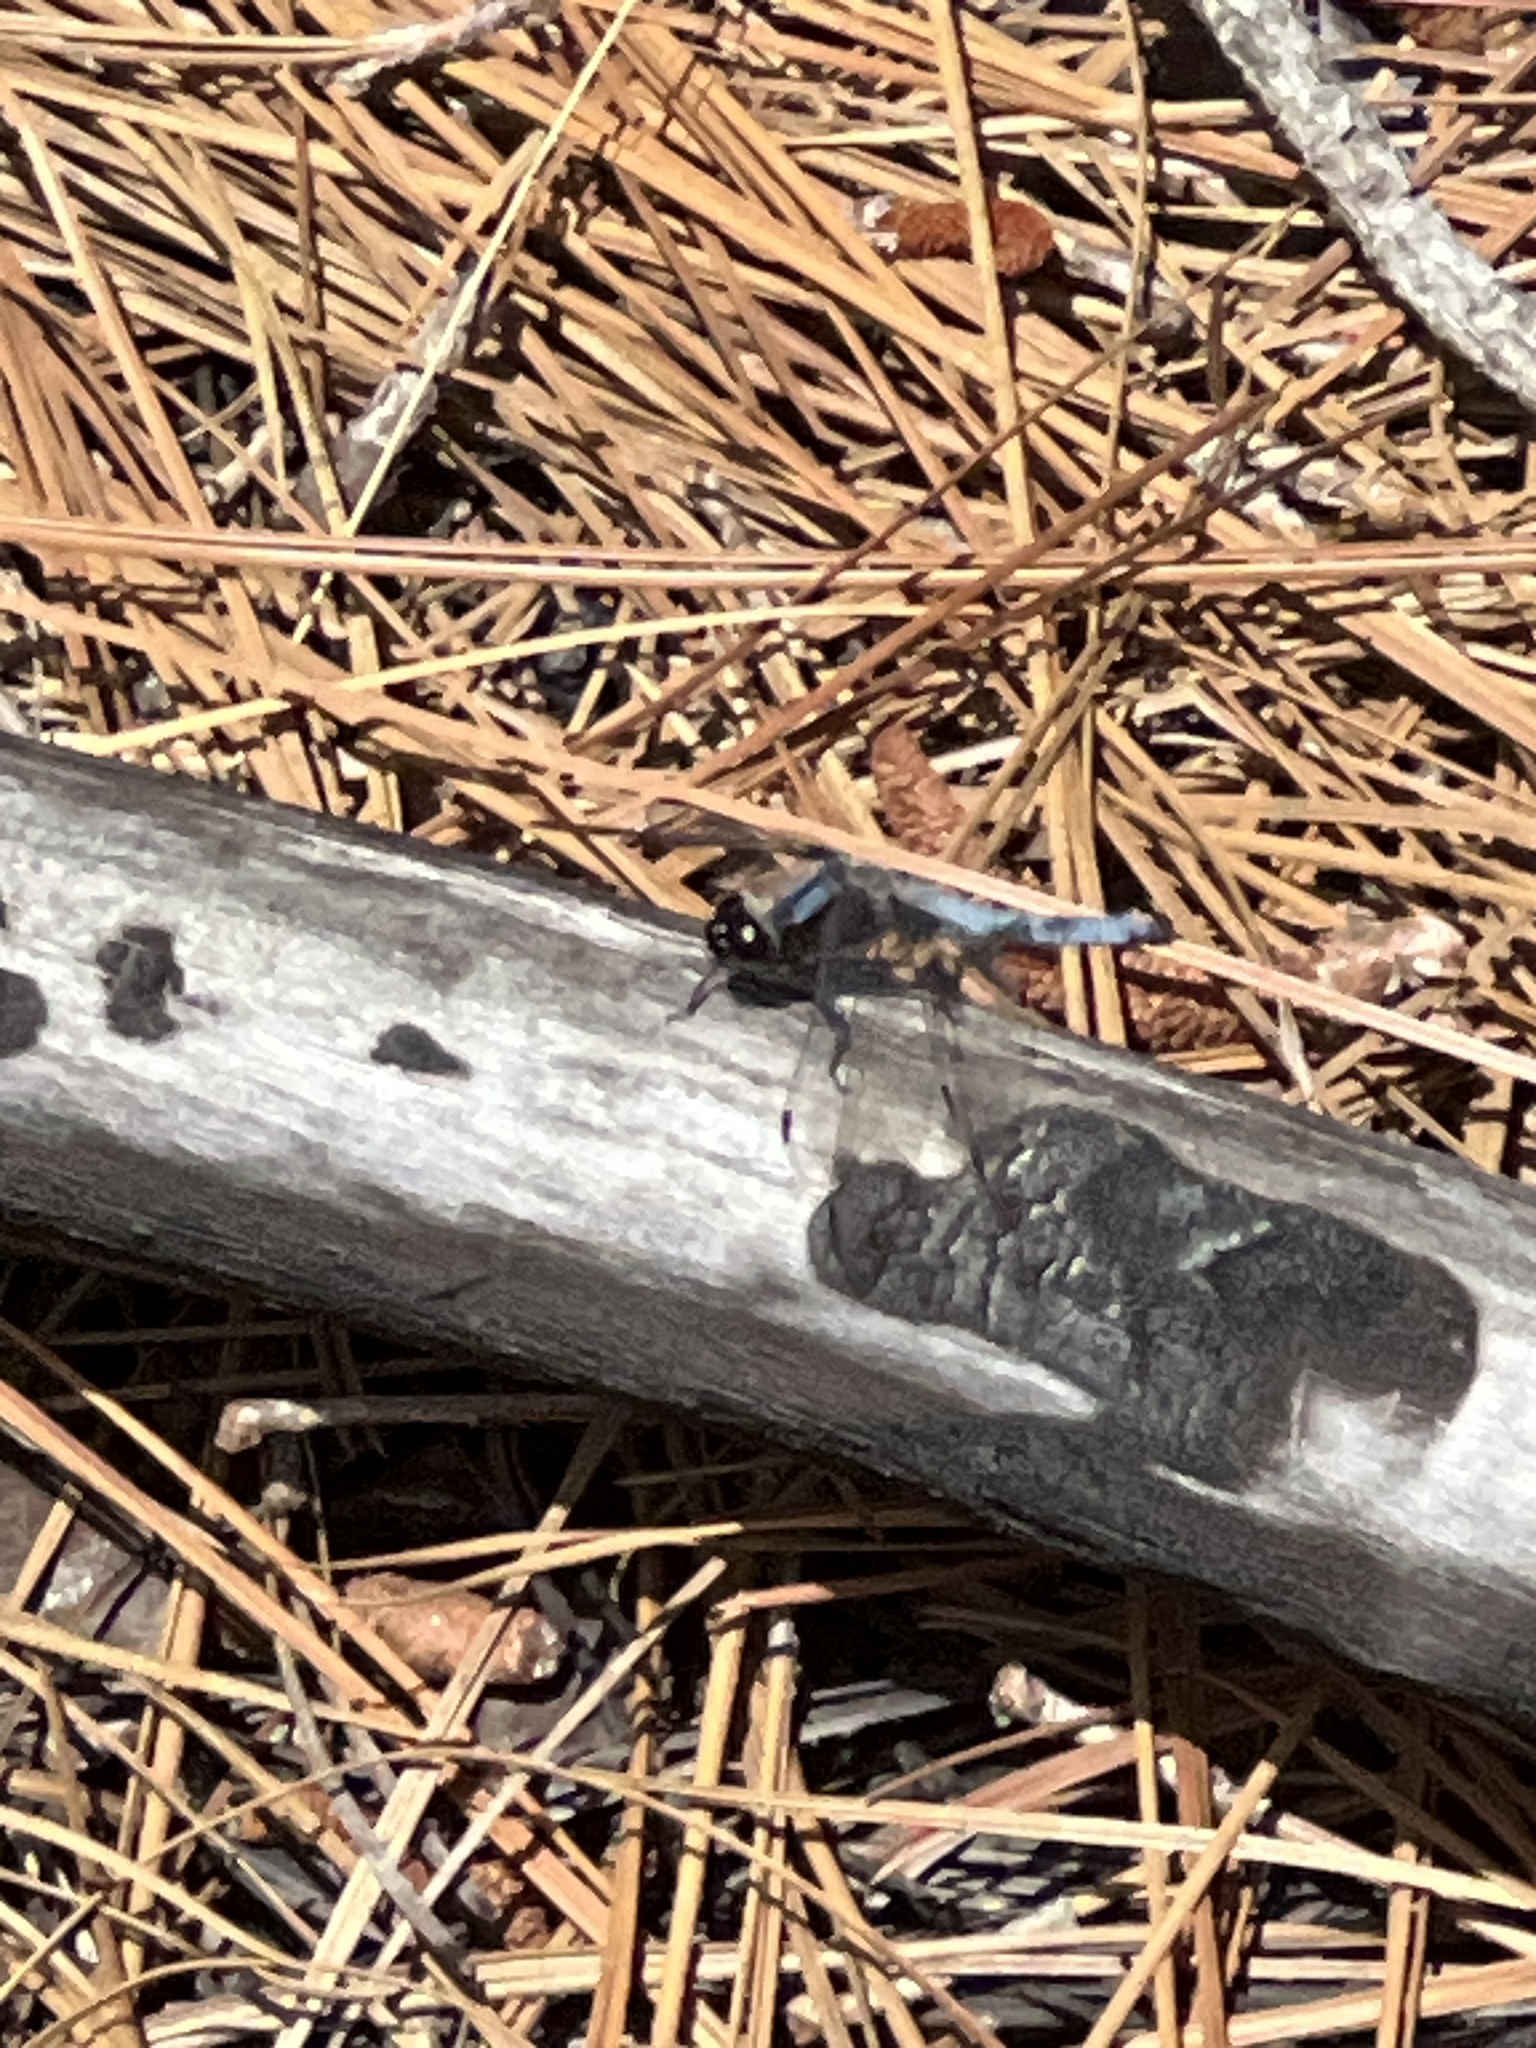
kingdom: Animalia
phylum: Arthropoda
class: Insecta
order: Odonata
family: Libellulidae
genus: Ladona
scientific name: Ladona deplanata
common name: Blue corporal
